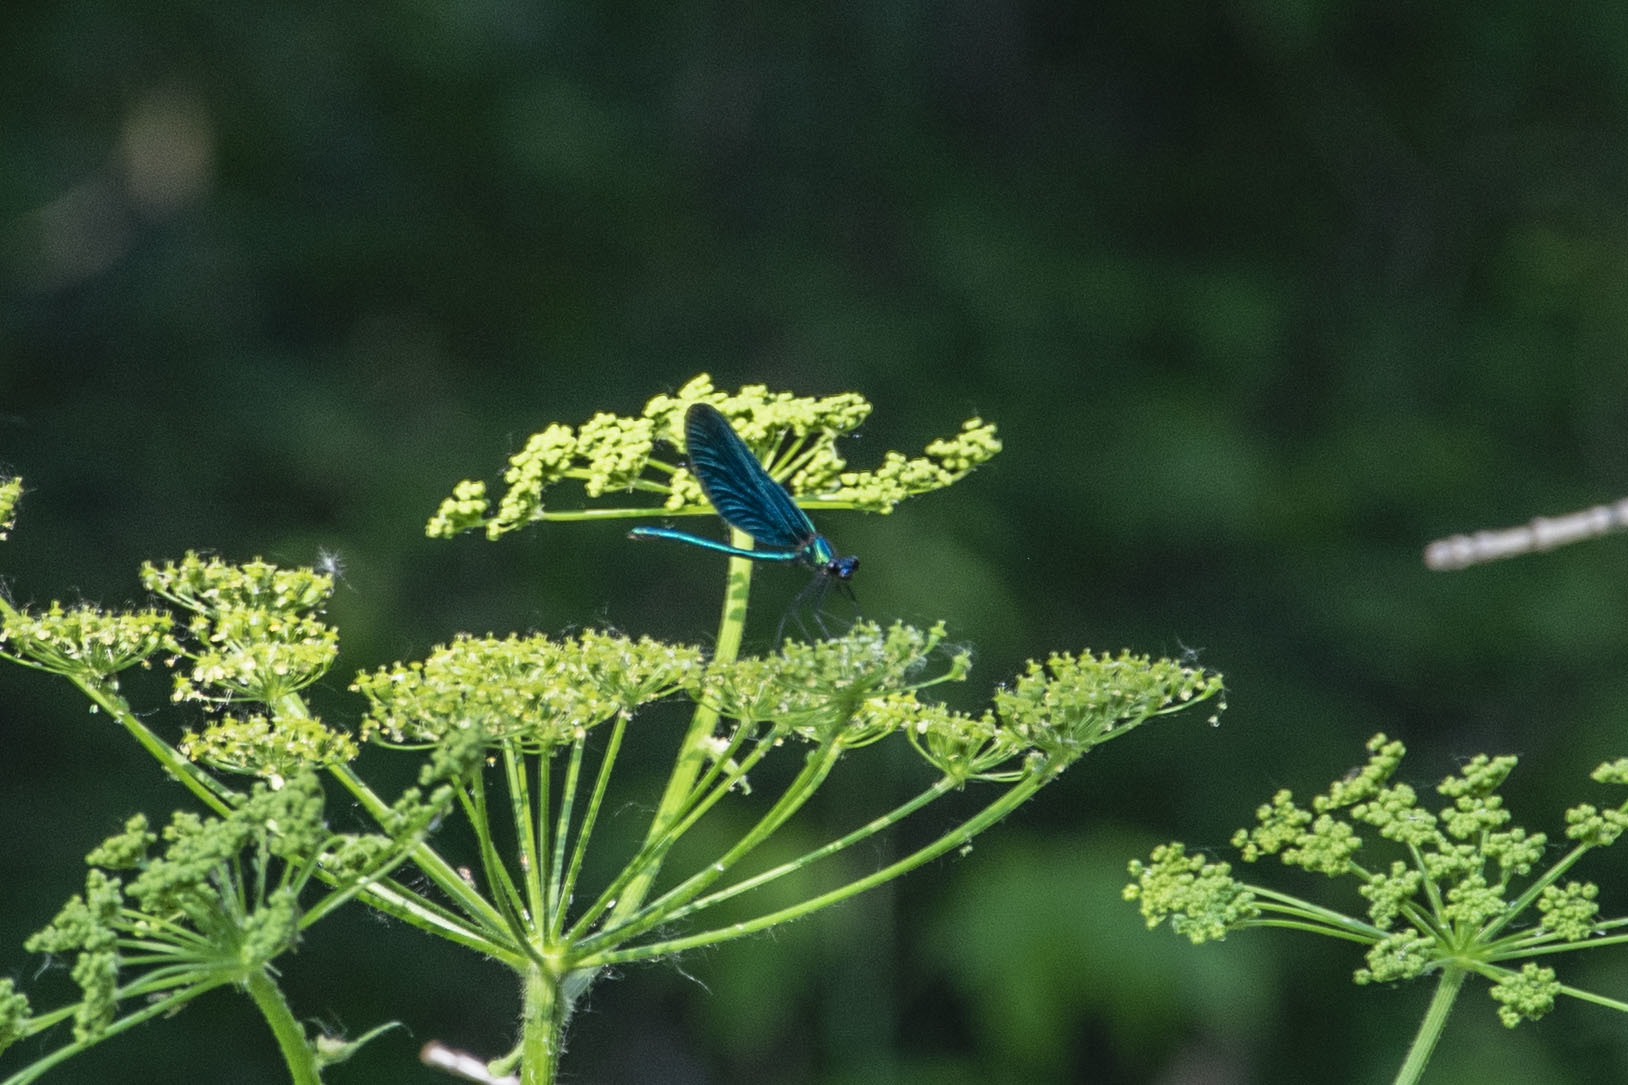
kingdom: Animalia
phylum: Arthropoda
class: Insecta
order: Odonata
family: Calopterygidae
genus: Calopteryx
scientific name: Calopteryx virgo
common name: Beautiful demoiselle
